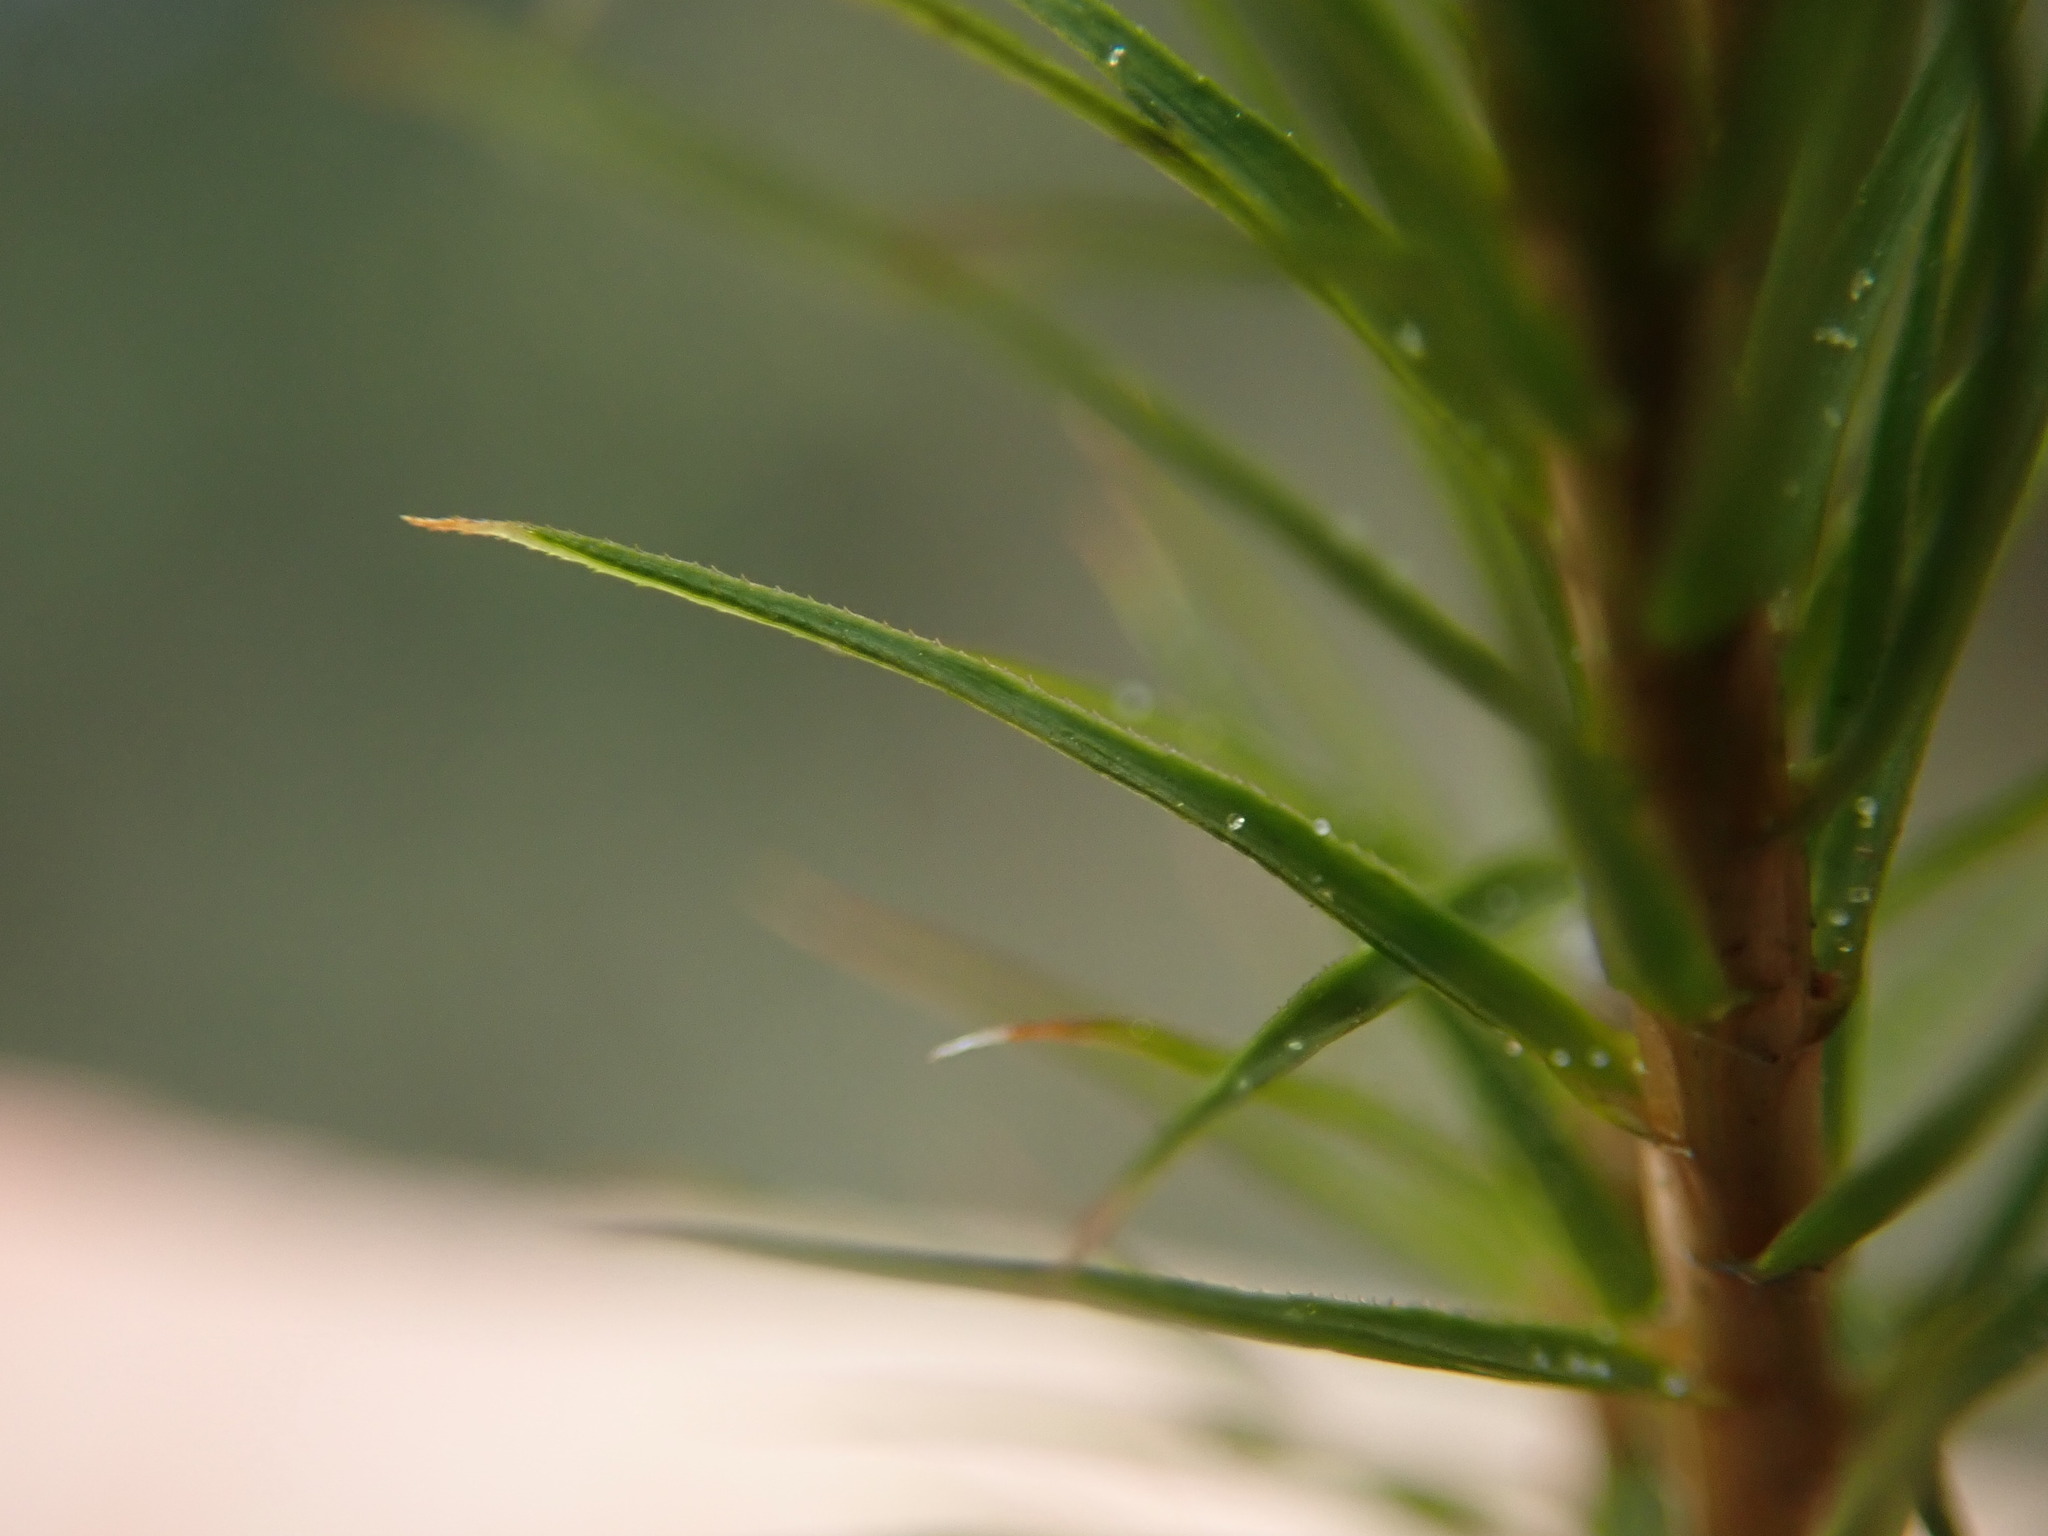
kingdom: Plantae
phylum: Bryophyta
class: Polytrichopsida
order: Polytrichales
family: Polytrichaceae
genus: Polytrichum
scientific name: Polytrichum commune
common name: Common haircap
